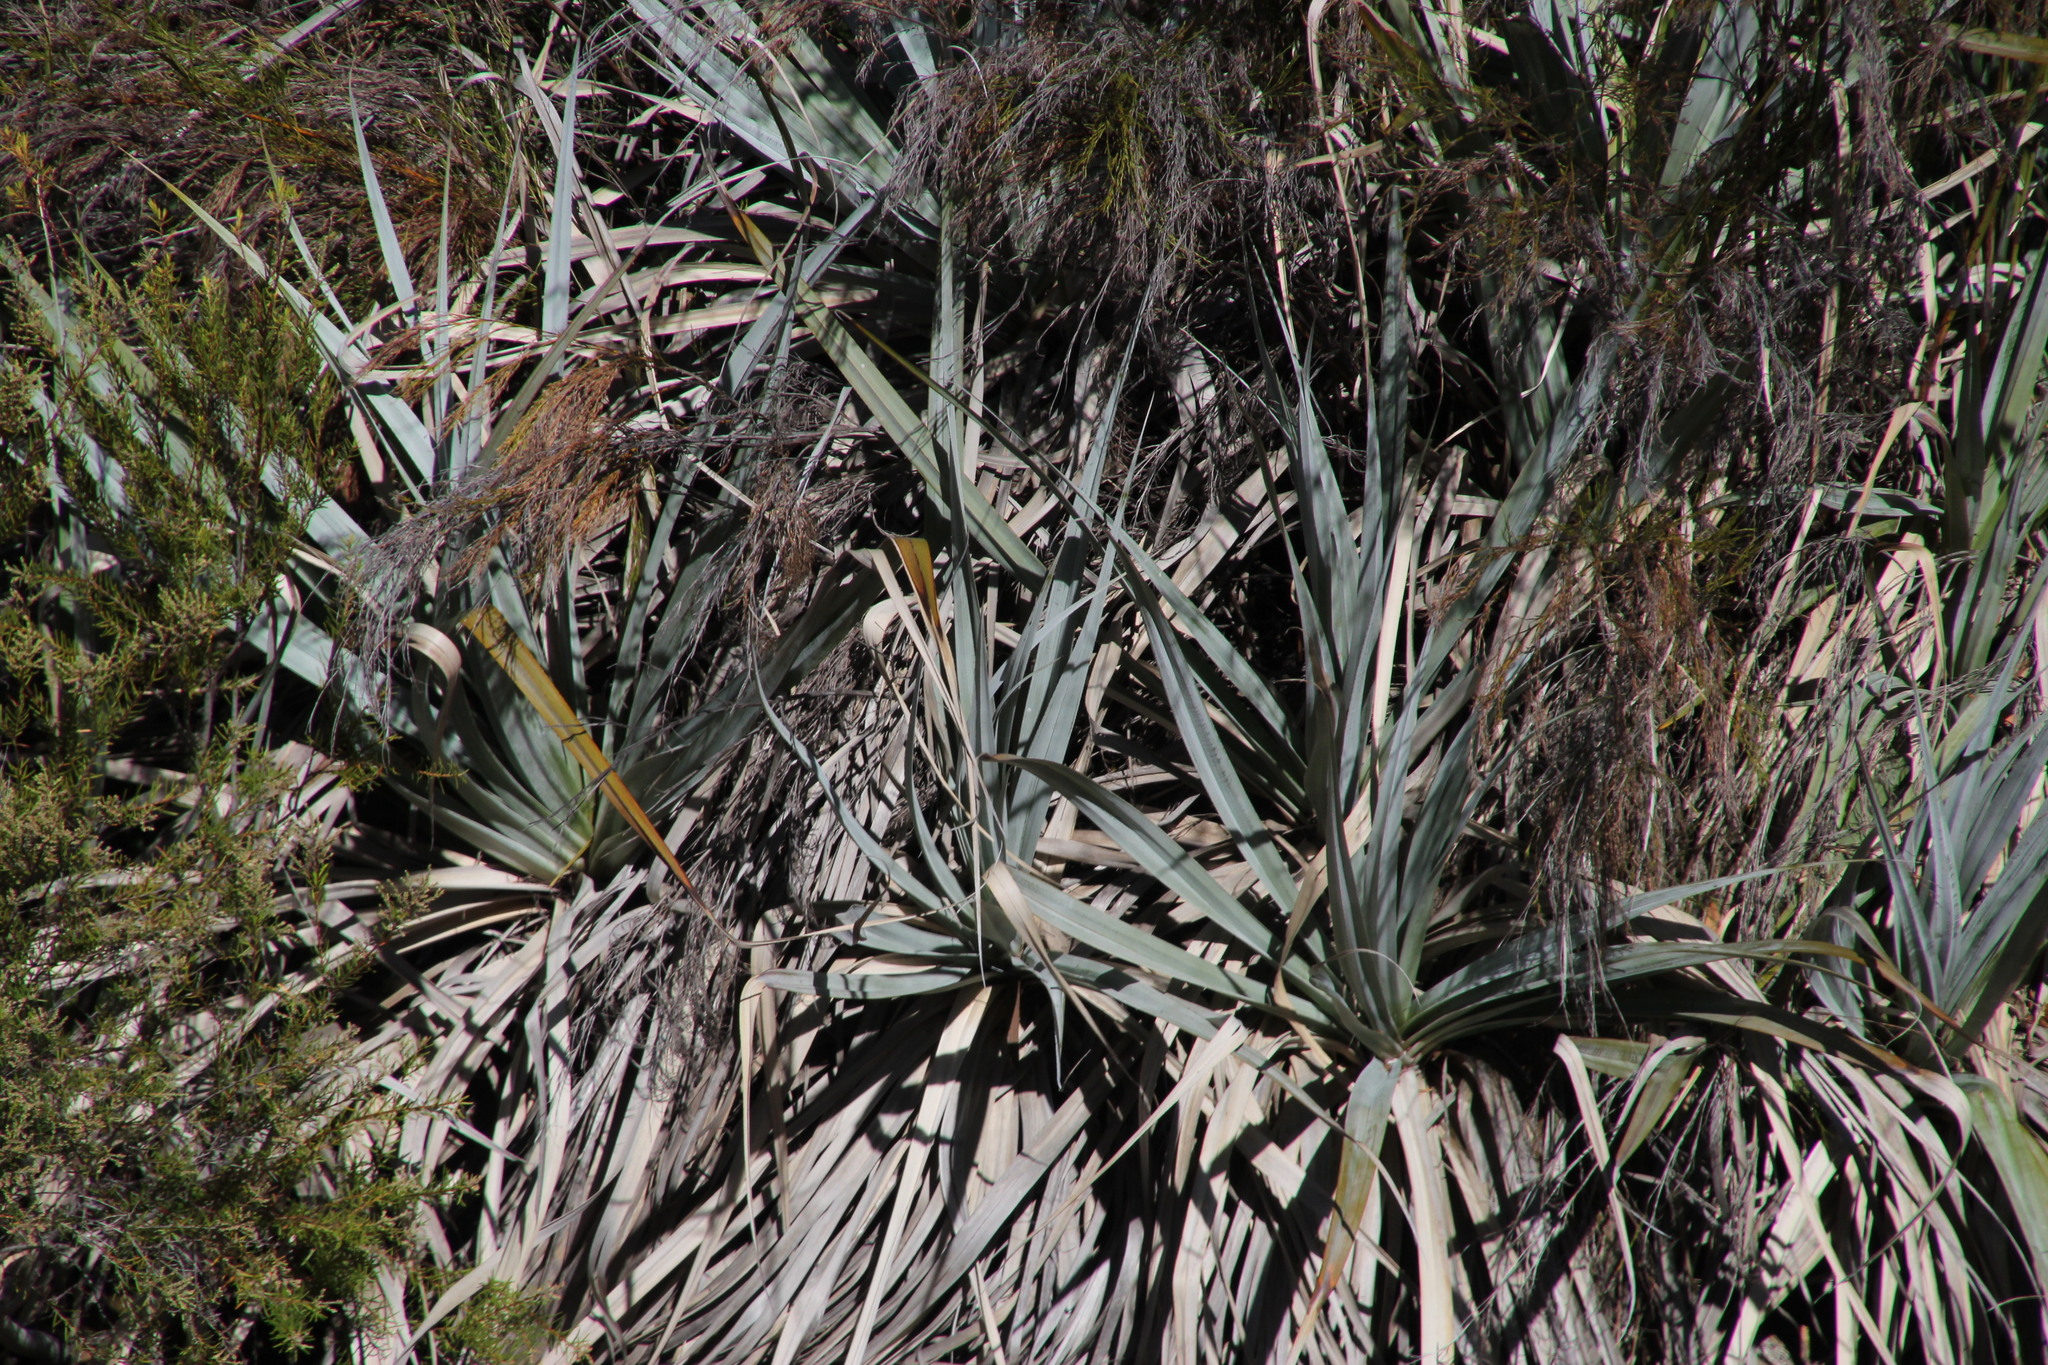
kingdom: Plantae
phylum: Tracheophyta
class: Liliopsida
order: Poales
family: Thurniaceae
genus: Prionium
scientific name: Prionium serratum
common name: Palmiet
